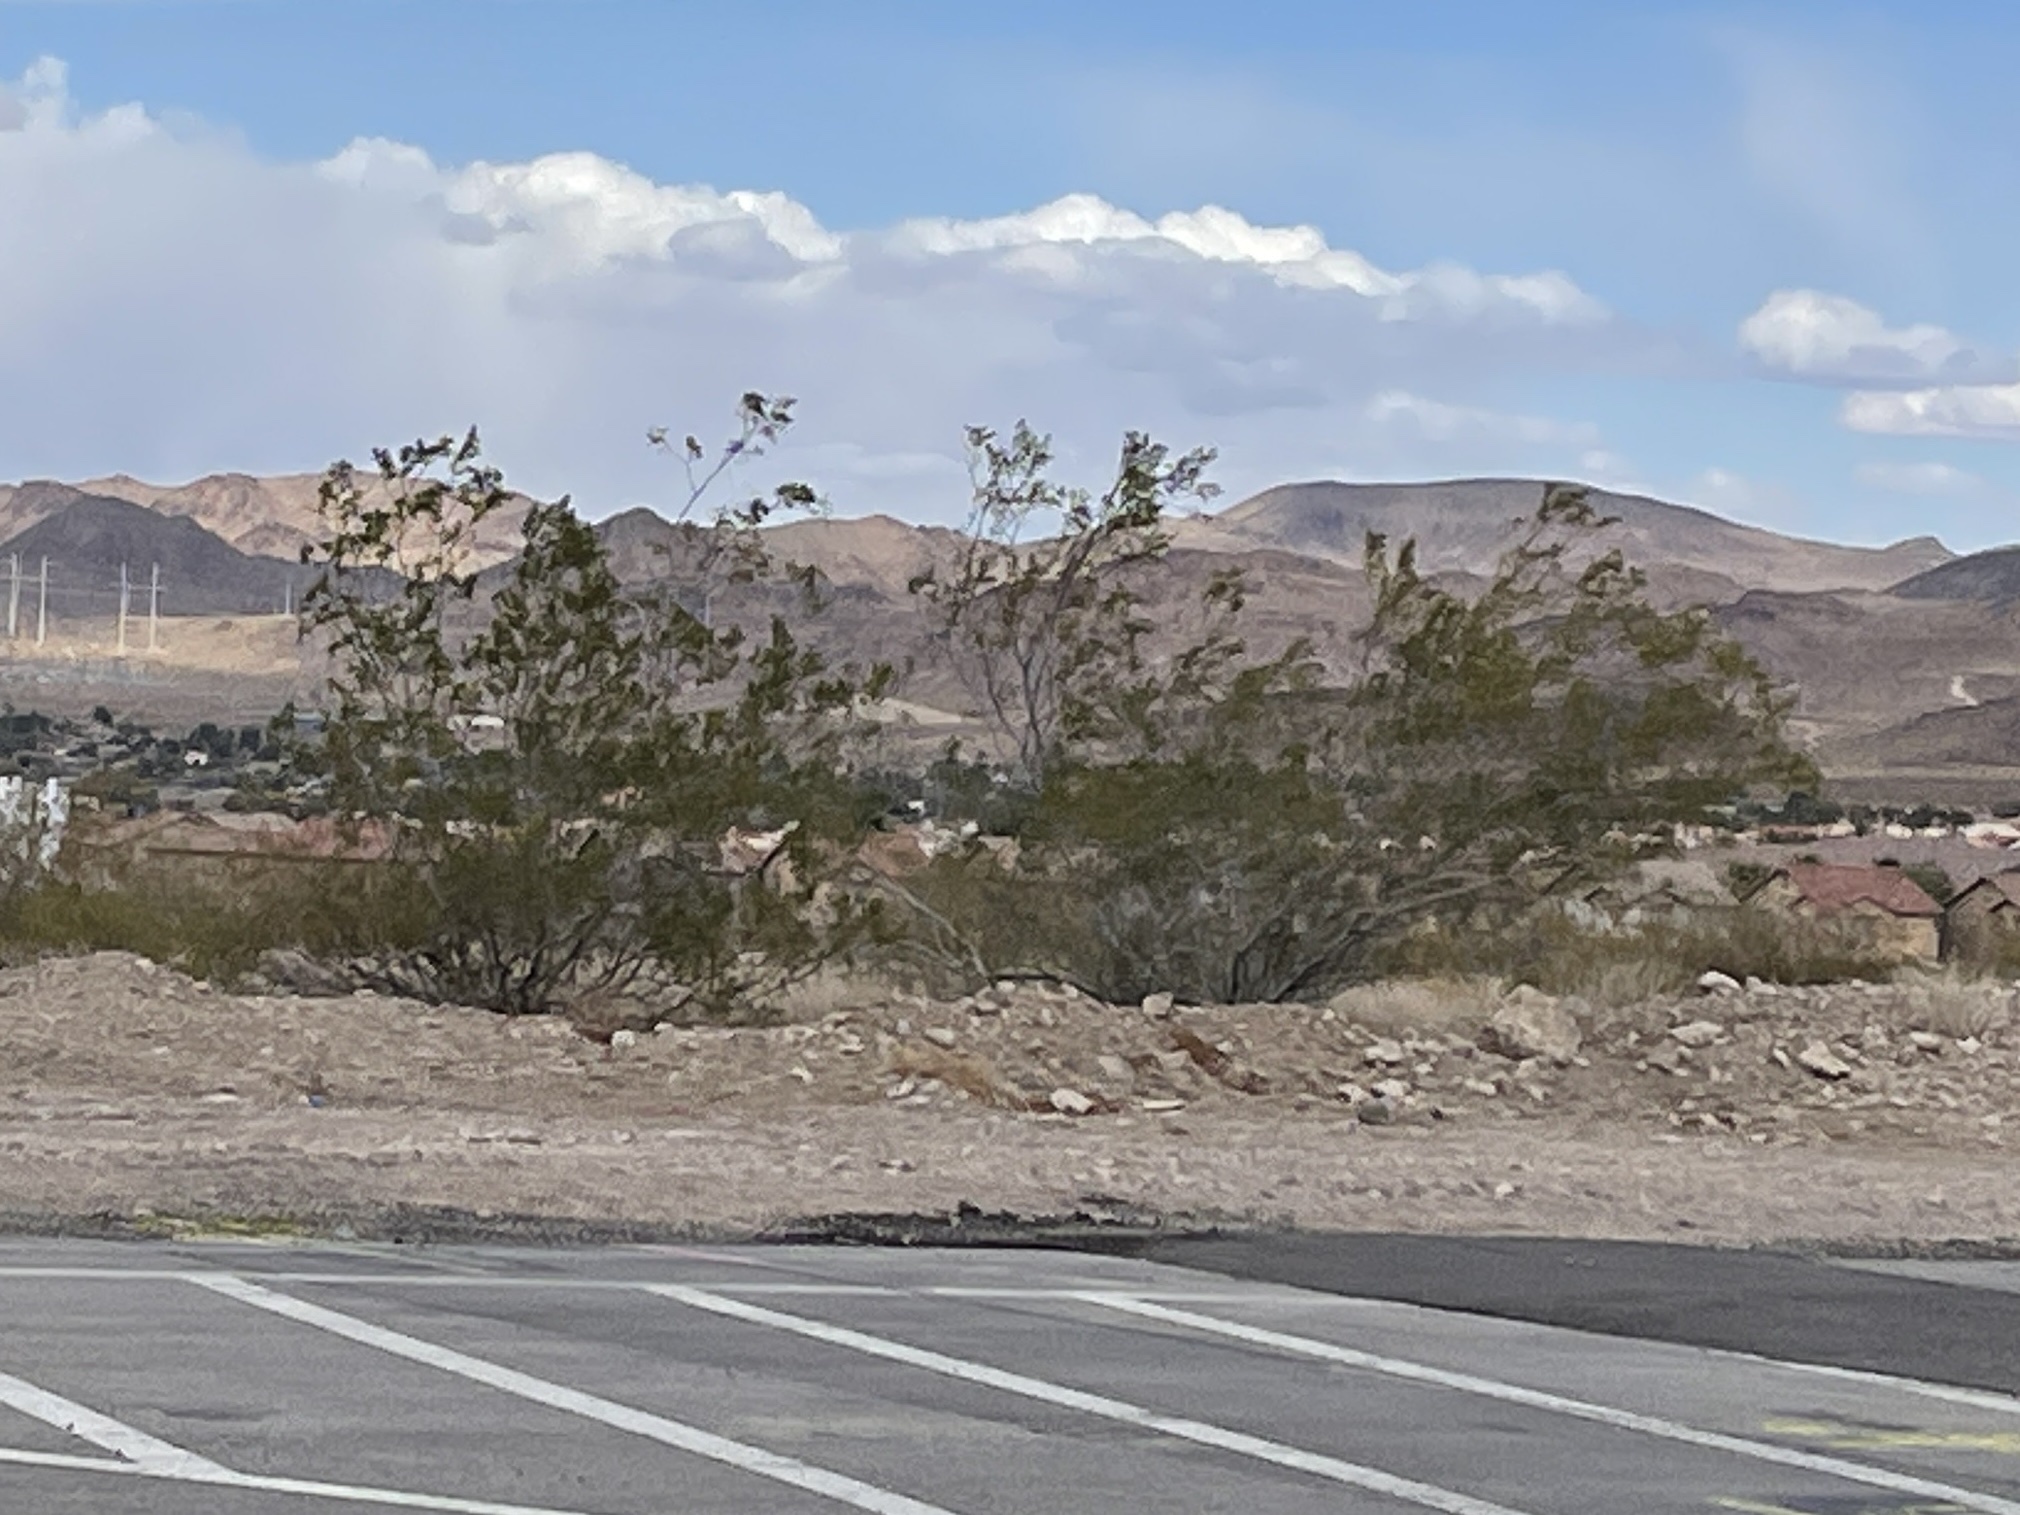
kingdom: Plantae
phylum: Tracheophyta
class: Magnoliopsida
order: Zygophyllales
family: Zygophyllaceae
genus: Larrea
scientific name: Larrea tridentata
